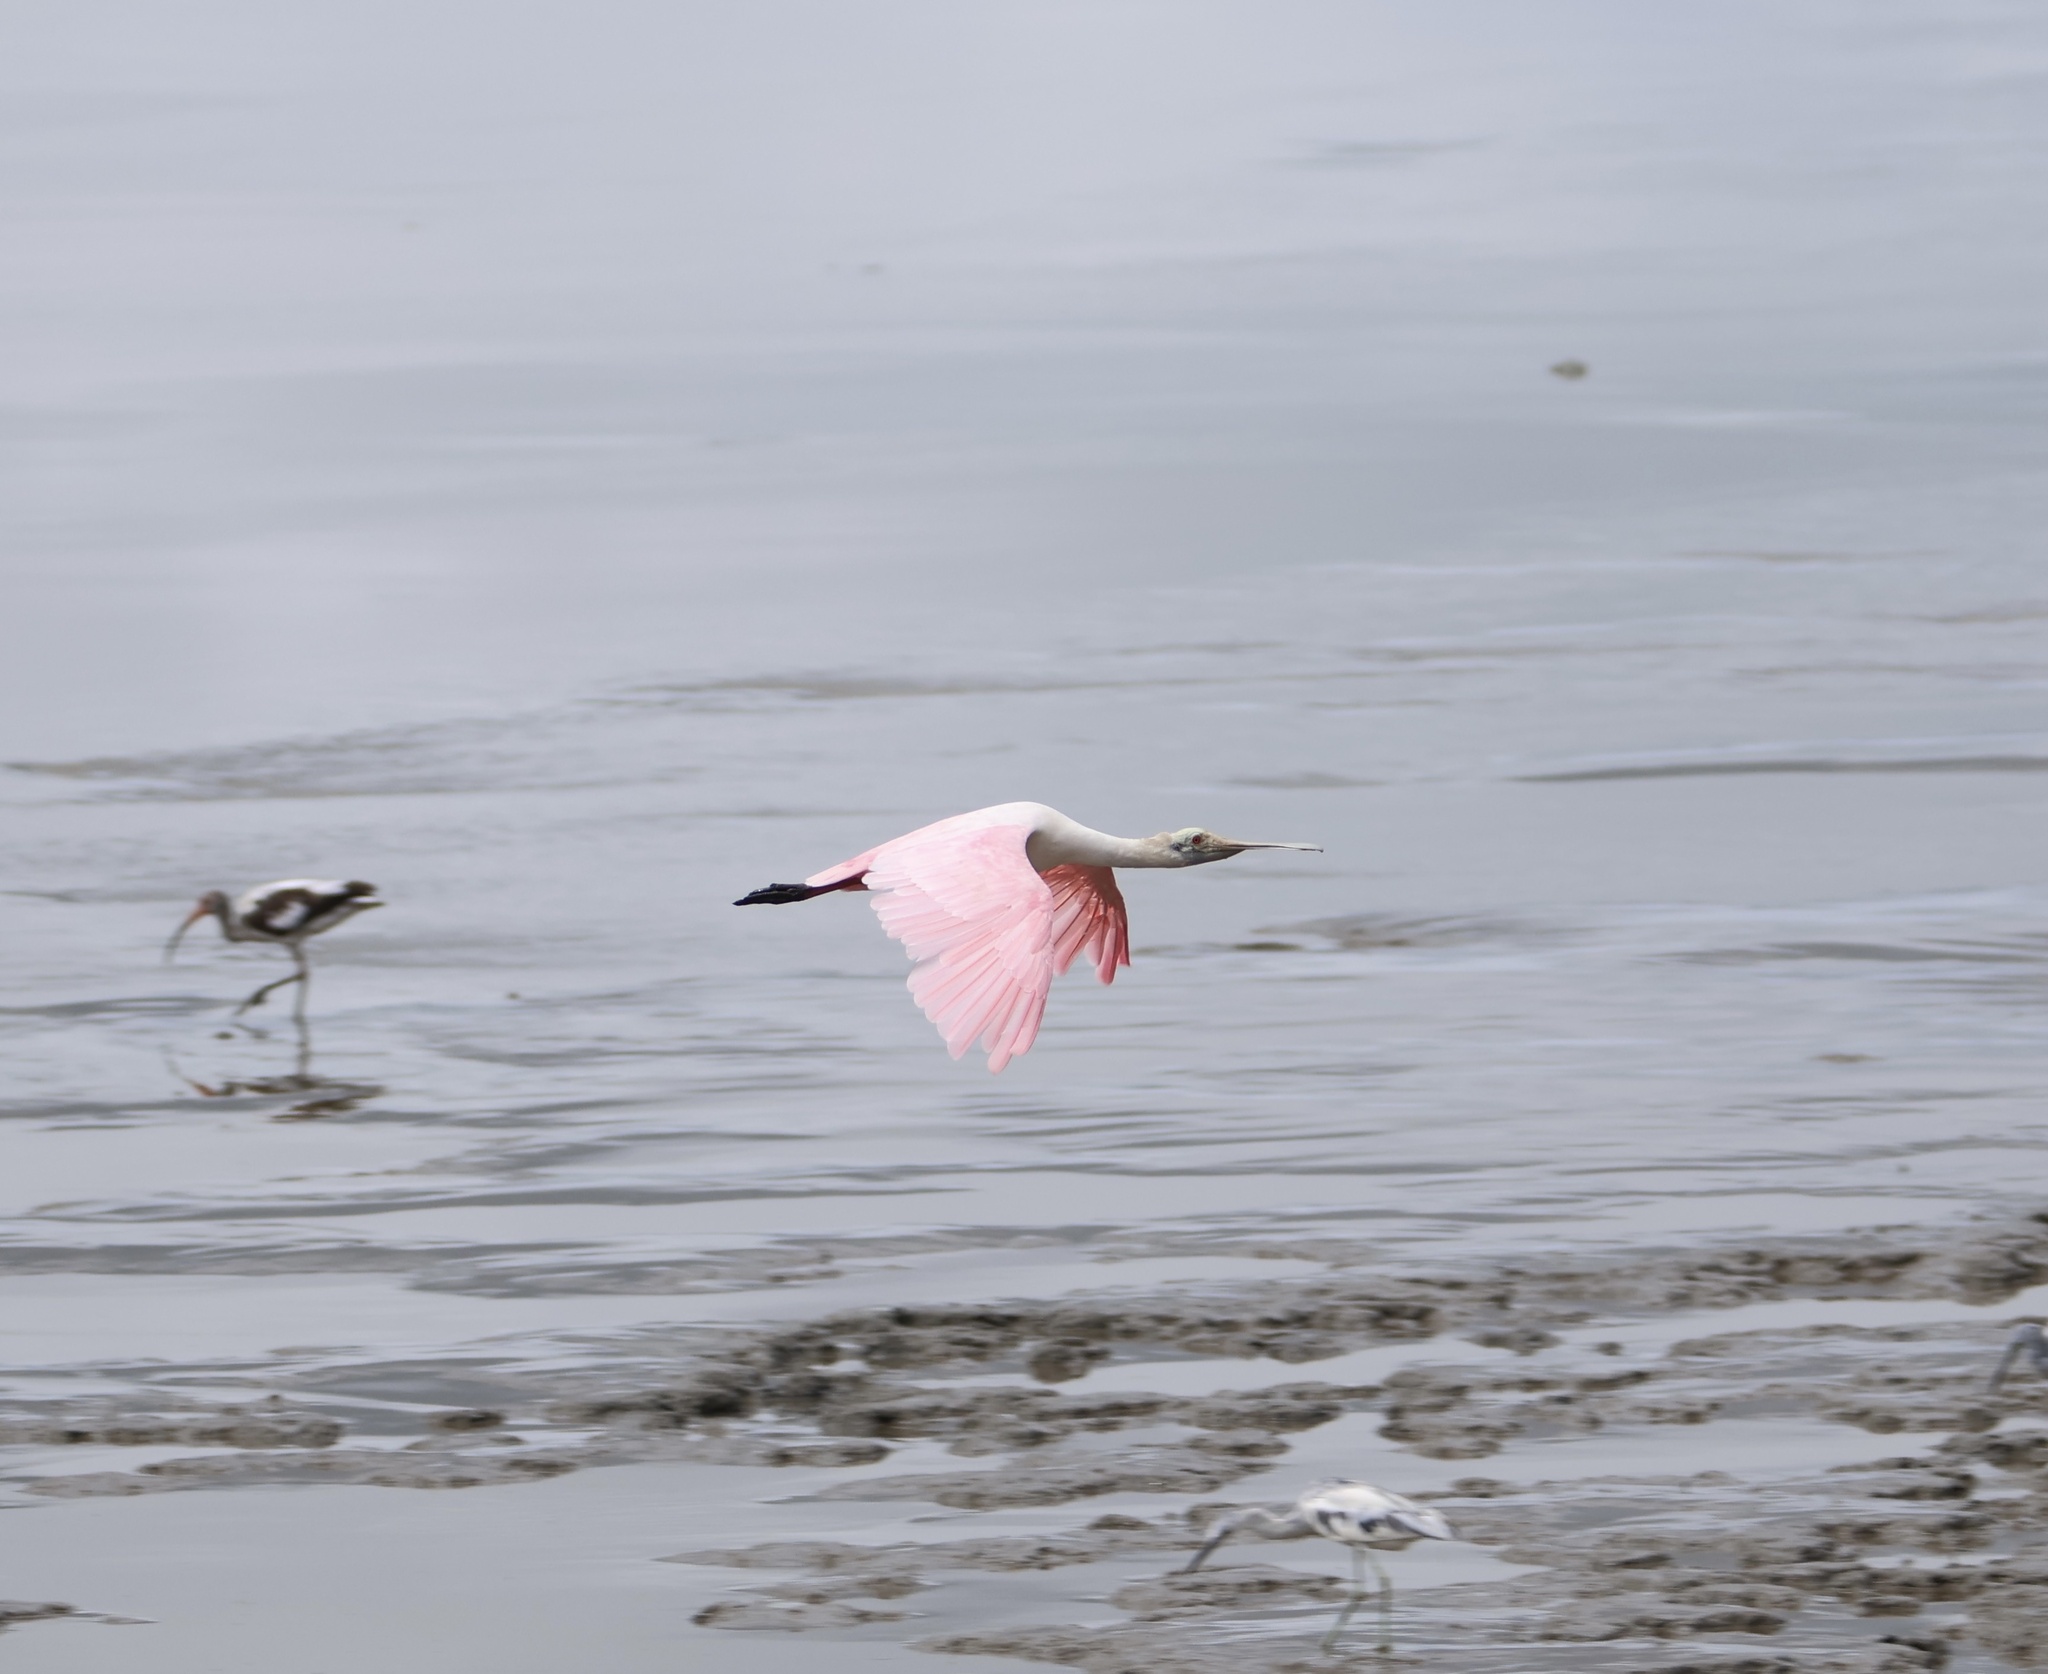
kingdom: Animalia
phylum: Chordata
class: Aves
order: Pelecaniformes
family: Threskiornithidae
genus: Platalea
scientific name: Platalea ajaja
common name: Roseate spoonbill
